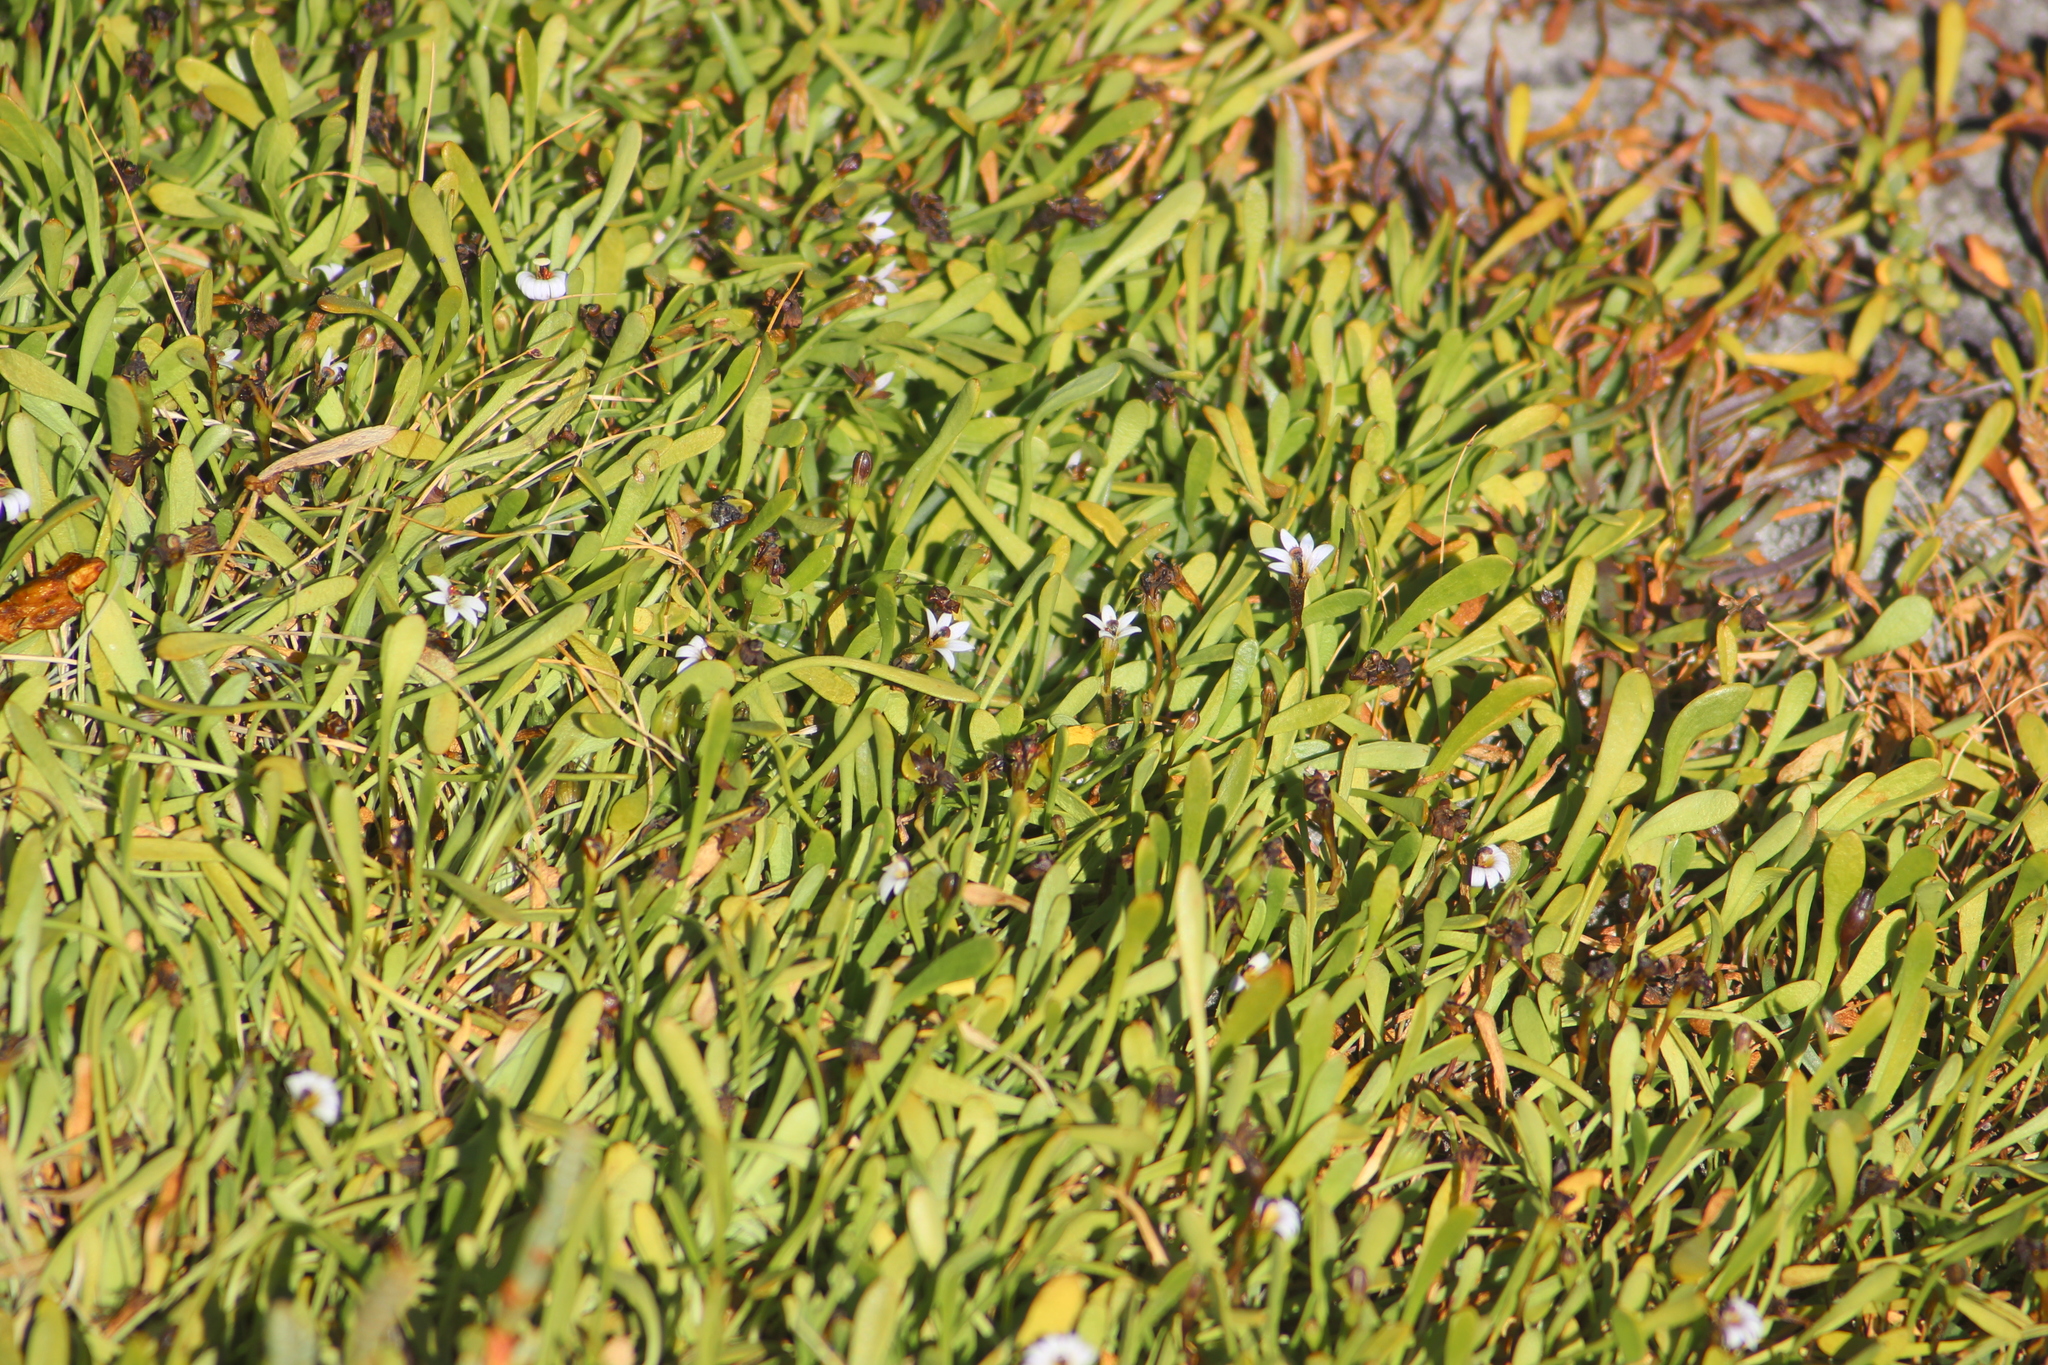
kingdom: Plantae
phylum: Tracheophyta
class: Magnoliopsida
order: Asterales
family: Goodeniaceae
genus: Goodenia
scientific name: Goodenia radicans
